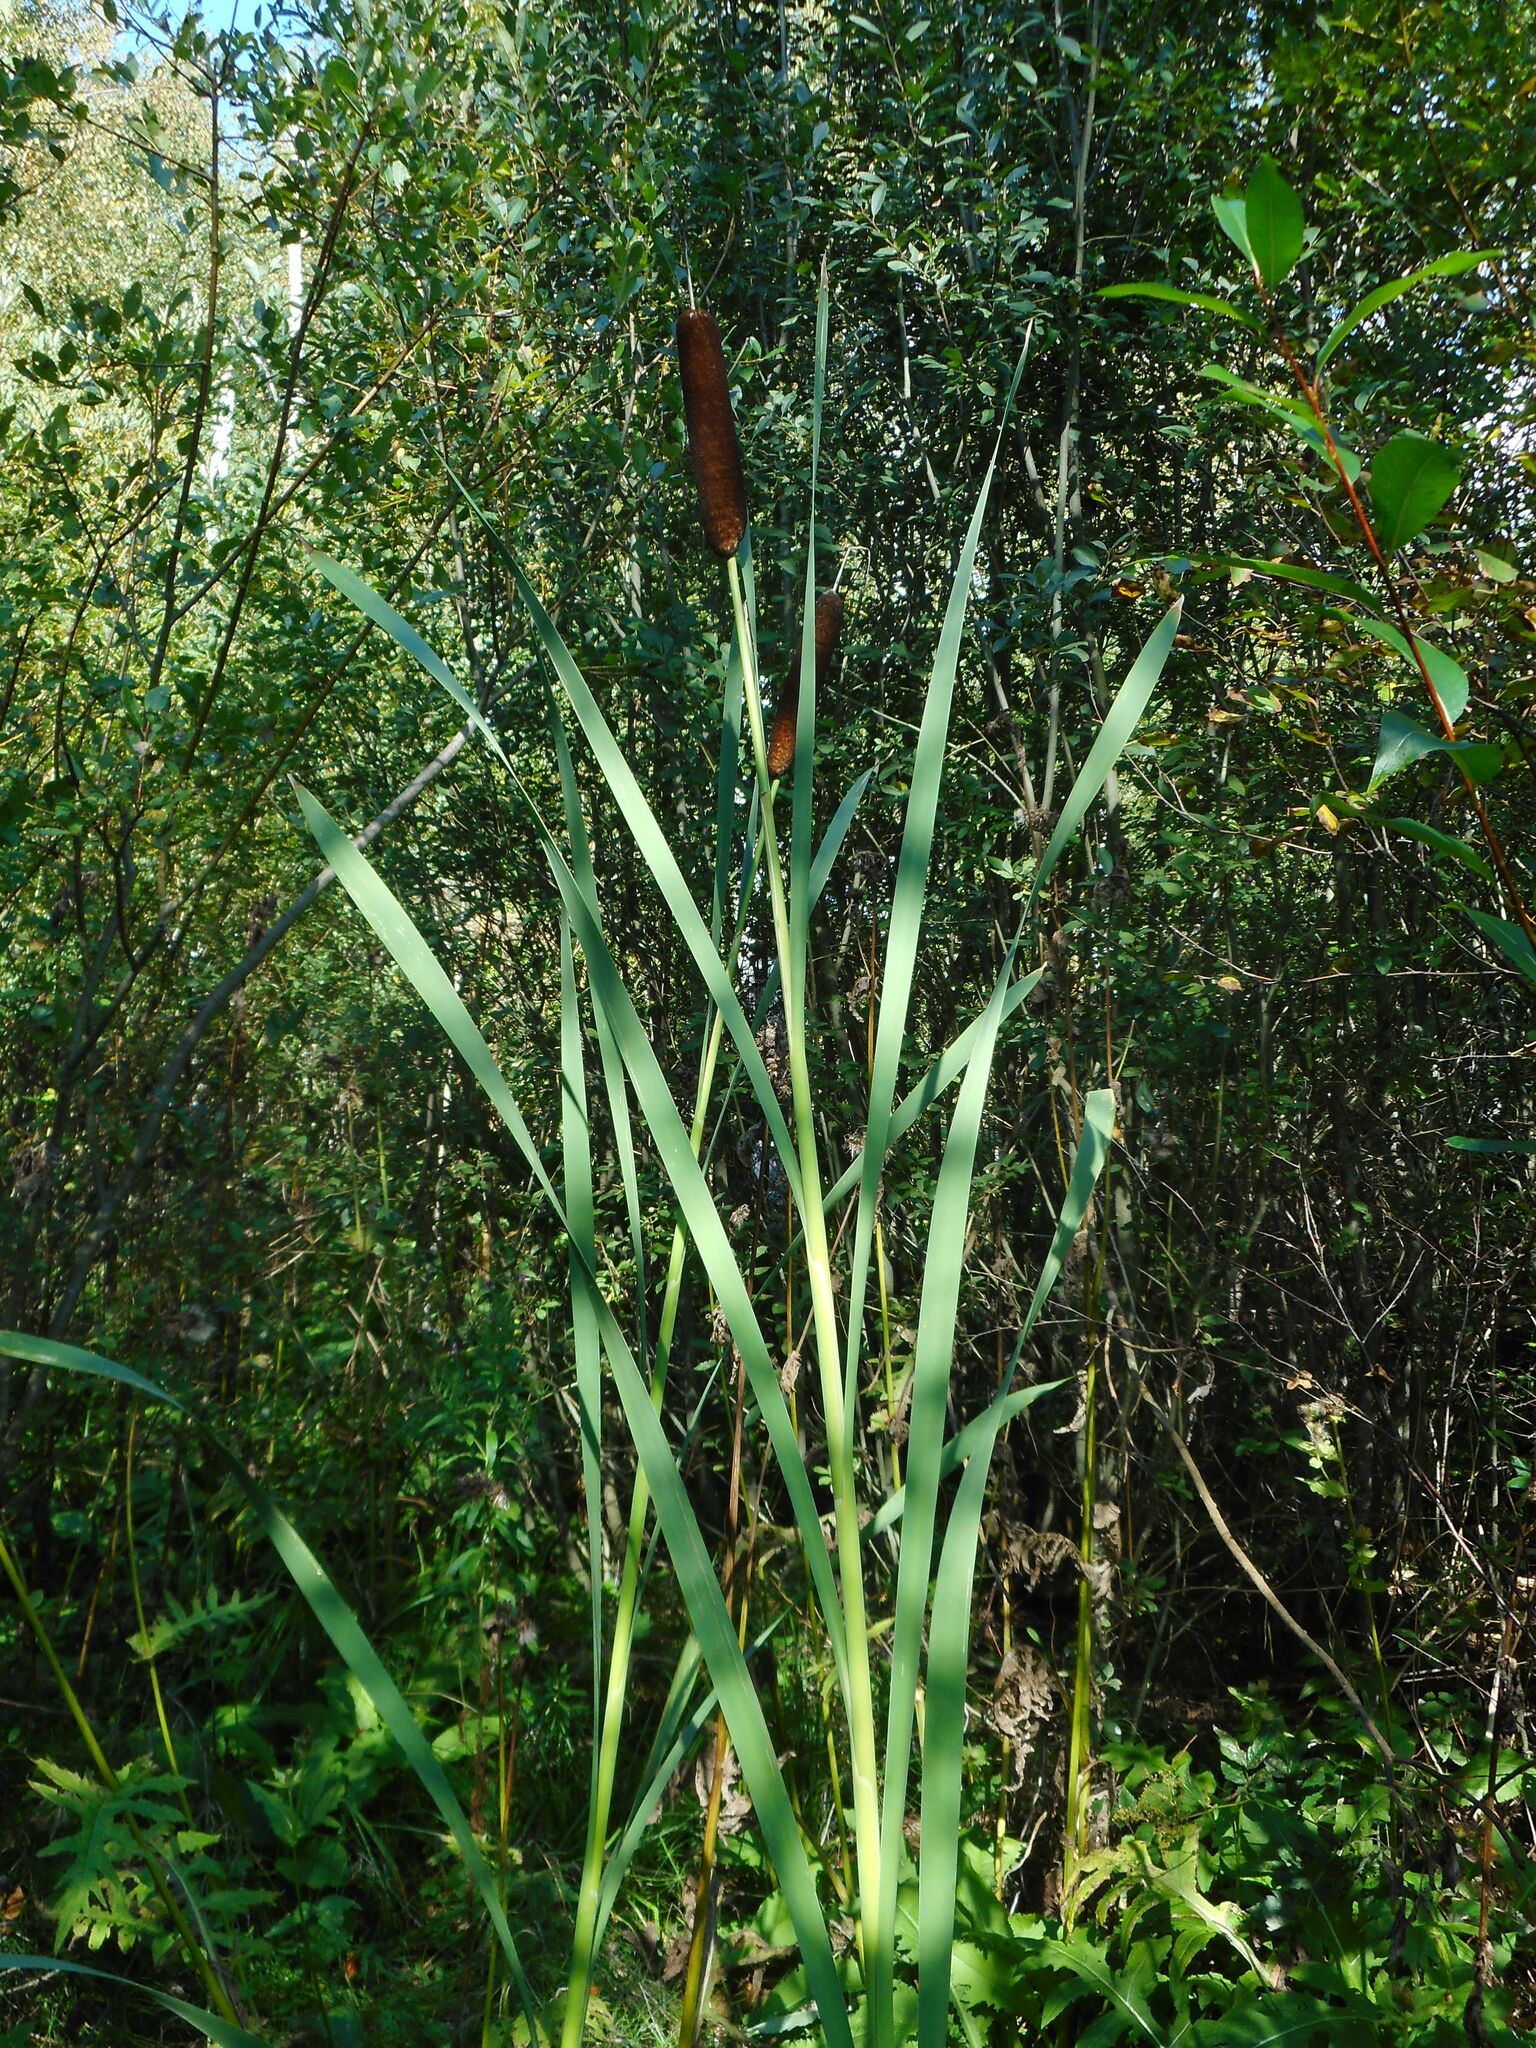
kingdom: Plantae
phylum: Tracheophyta
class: Liliopsida
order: Poales
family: Typhaceae
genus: Typha
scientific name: Typha latifolia
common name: Broadleaf cattail
